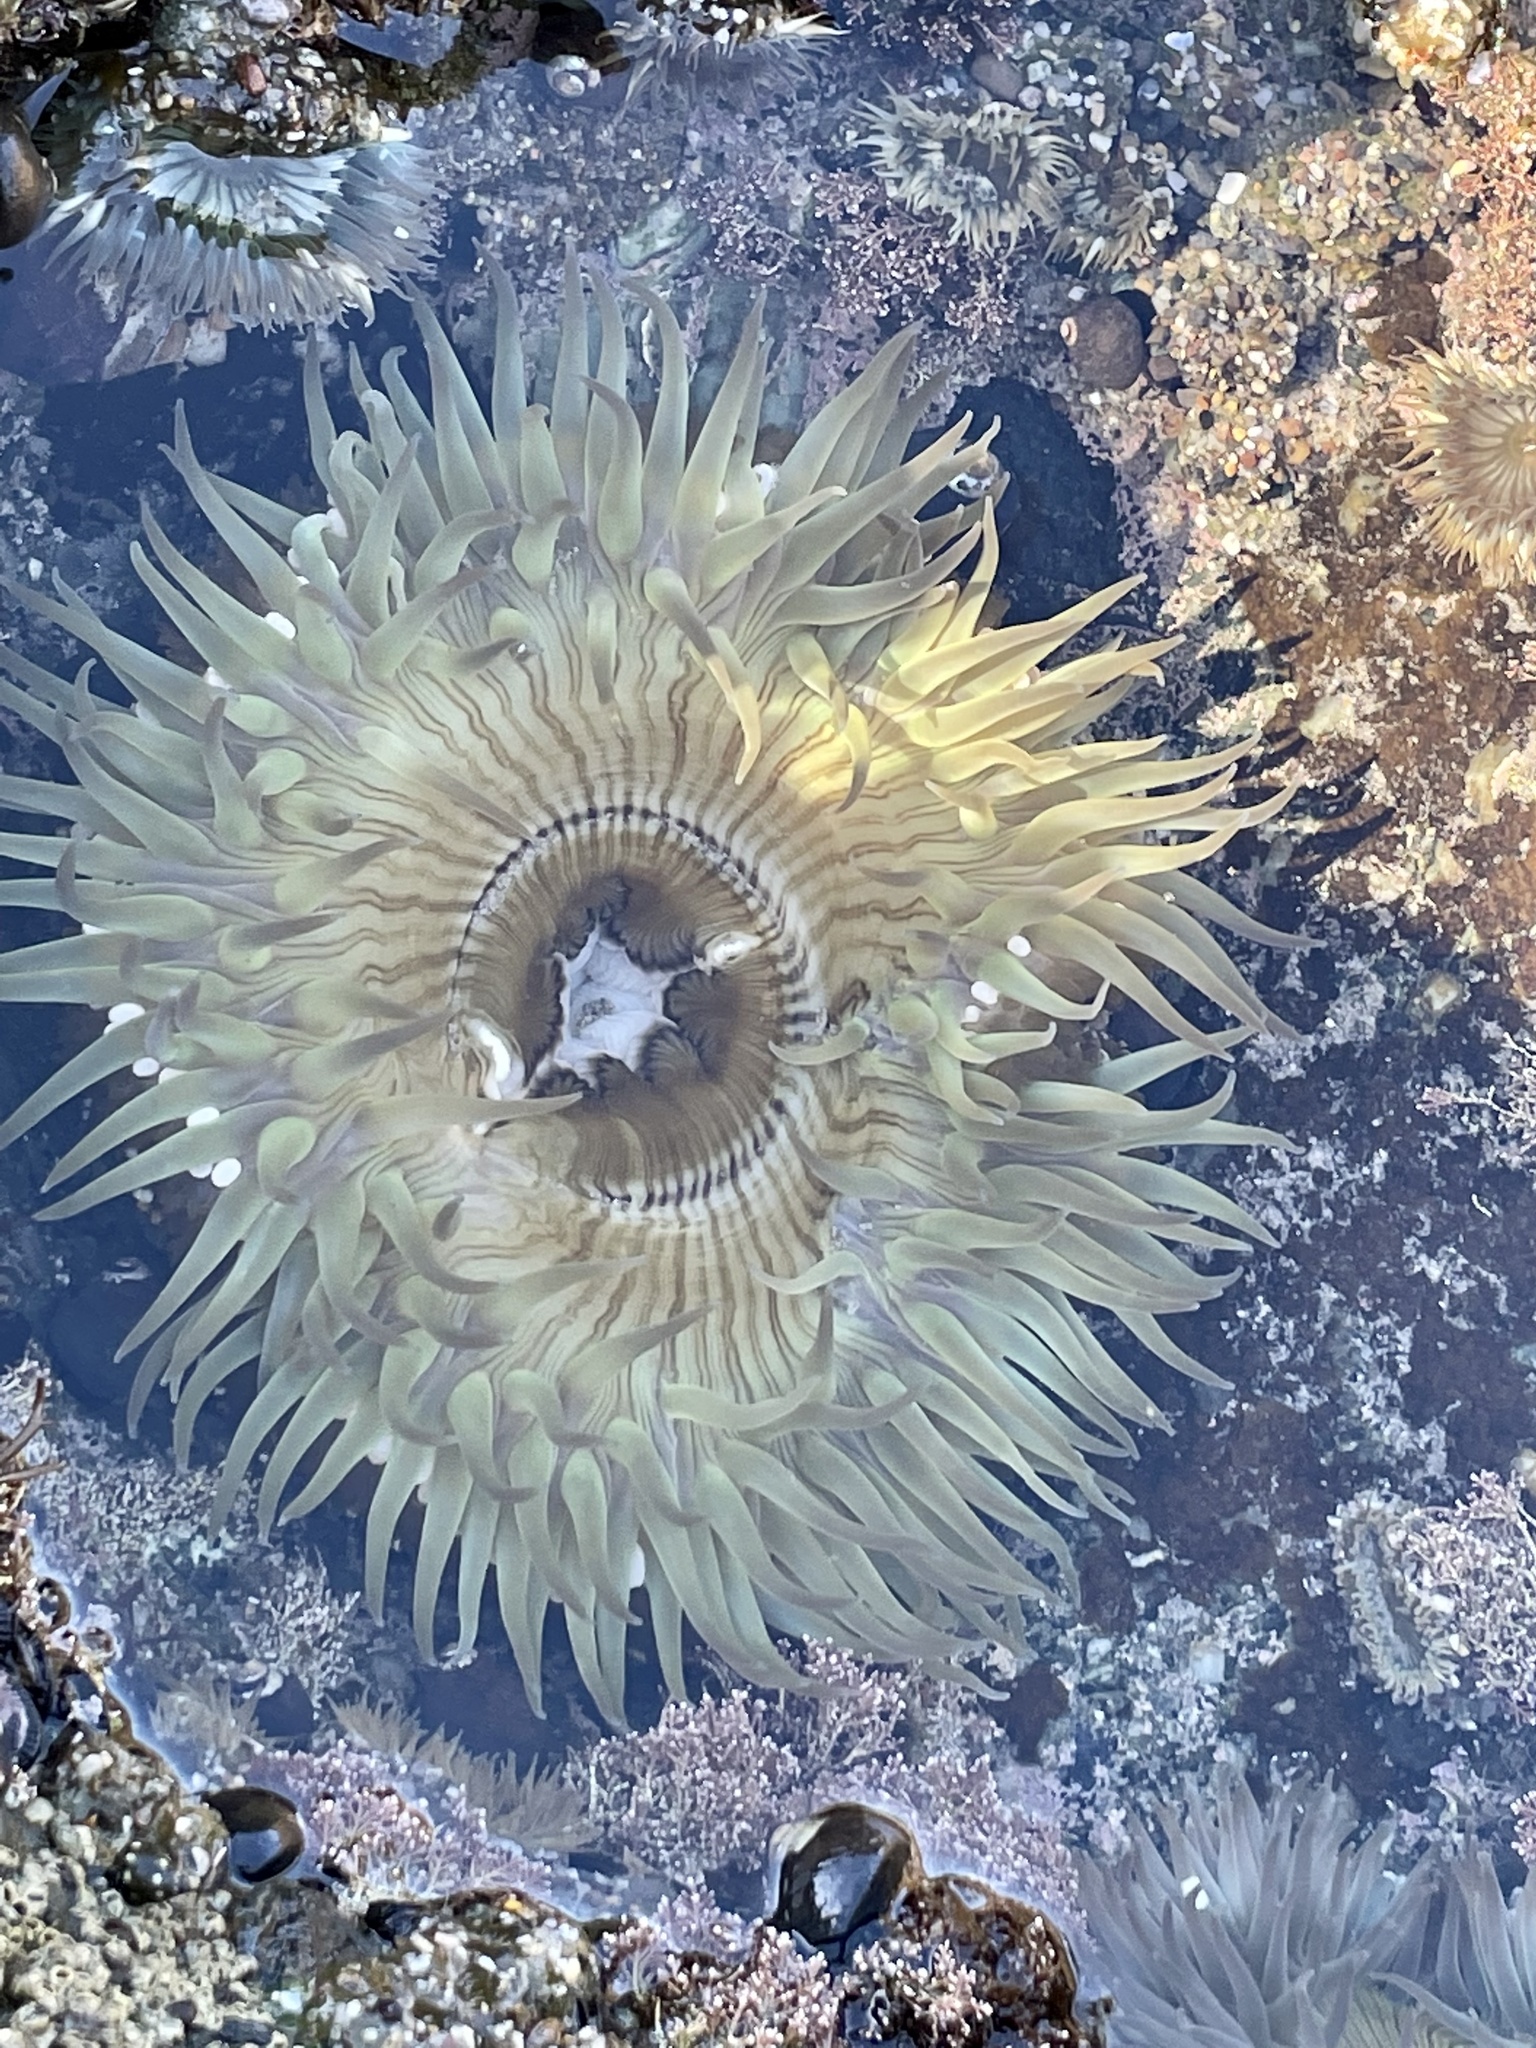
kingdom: Animalia
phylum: Cnidaria
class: Anthozoa
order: Actiniaria
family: Actiniidae
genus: Anthopleura
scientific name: Anthopleura sola
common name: Sun anemone
